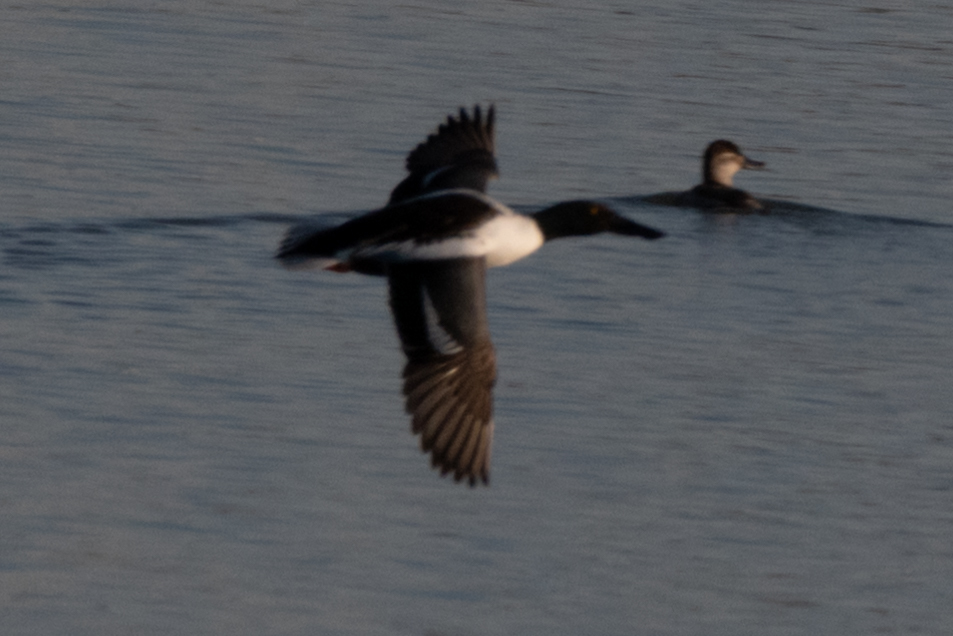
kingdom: Animalia
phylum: Chordata
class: Aves
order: Anseriformes
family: Anatidae
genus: Spatula
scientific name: Spatula clypeata
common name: Northern shoveler
